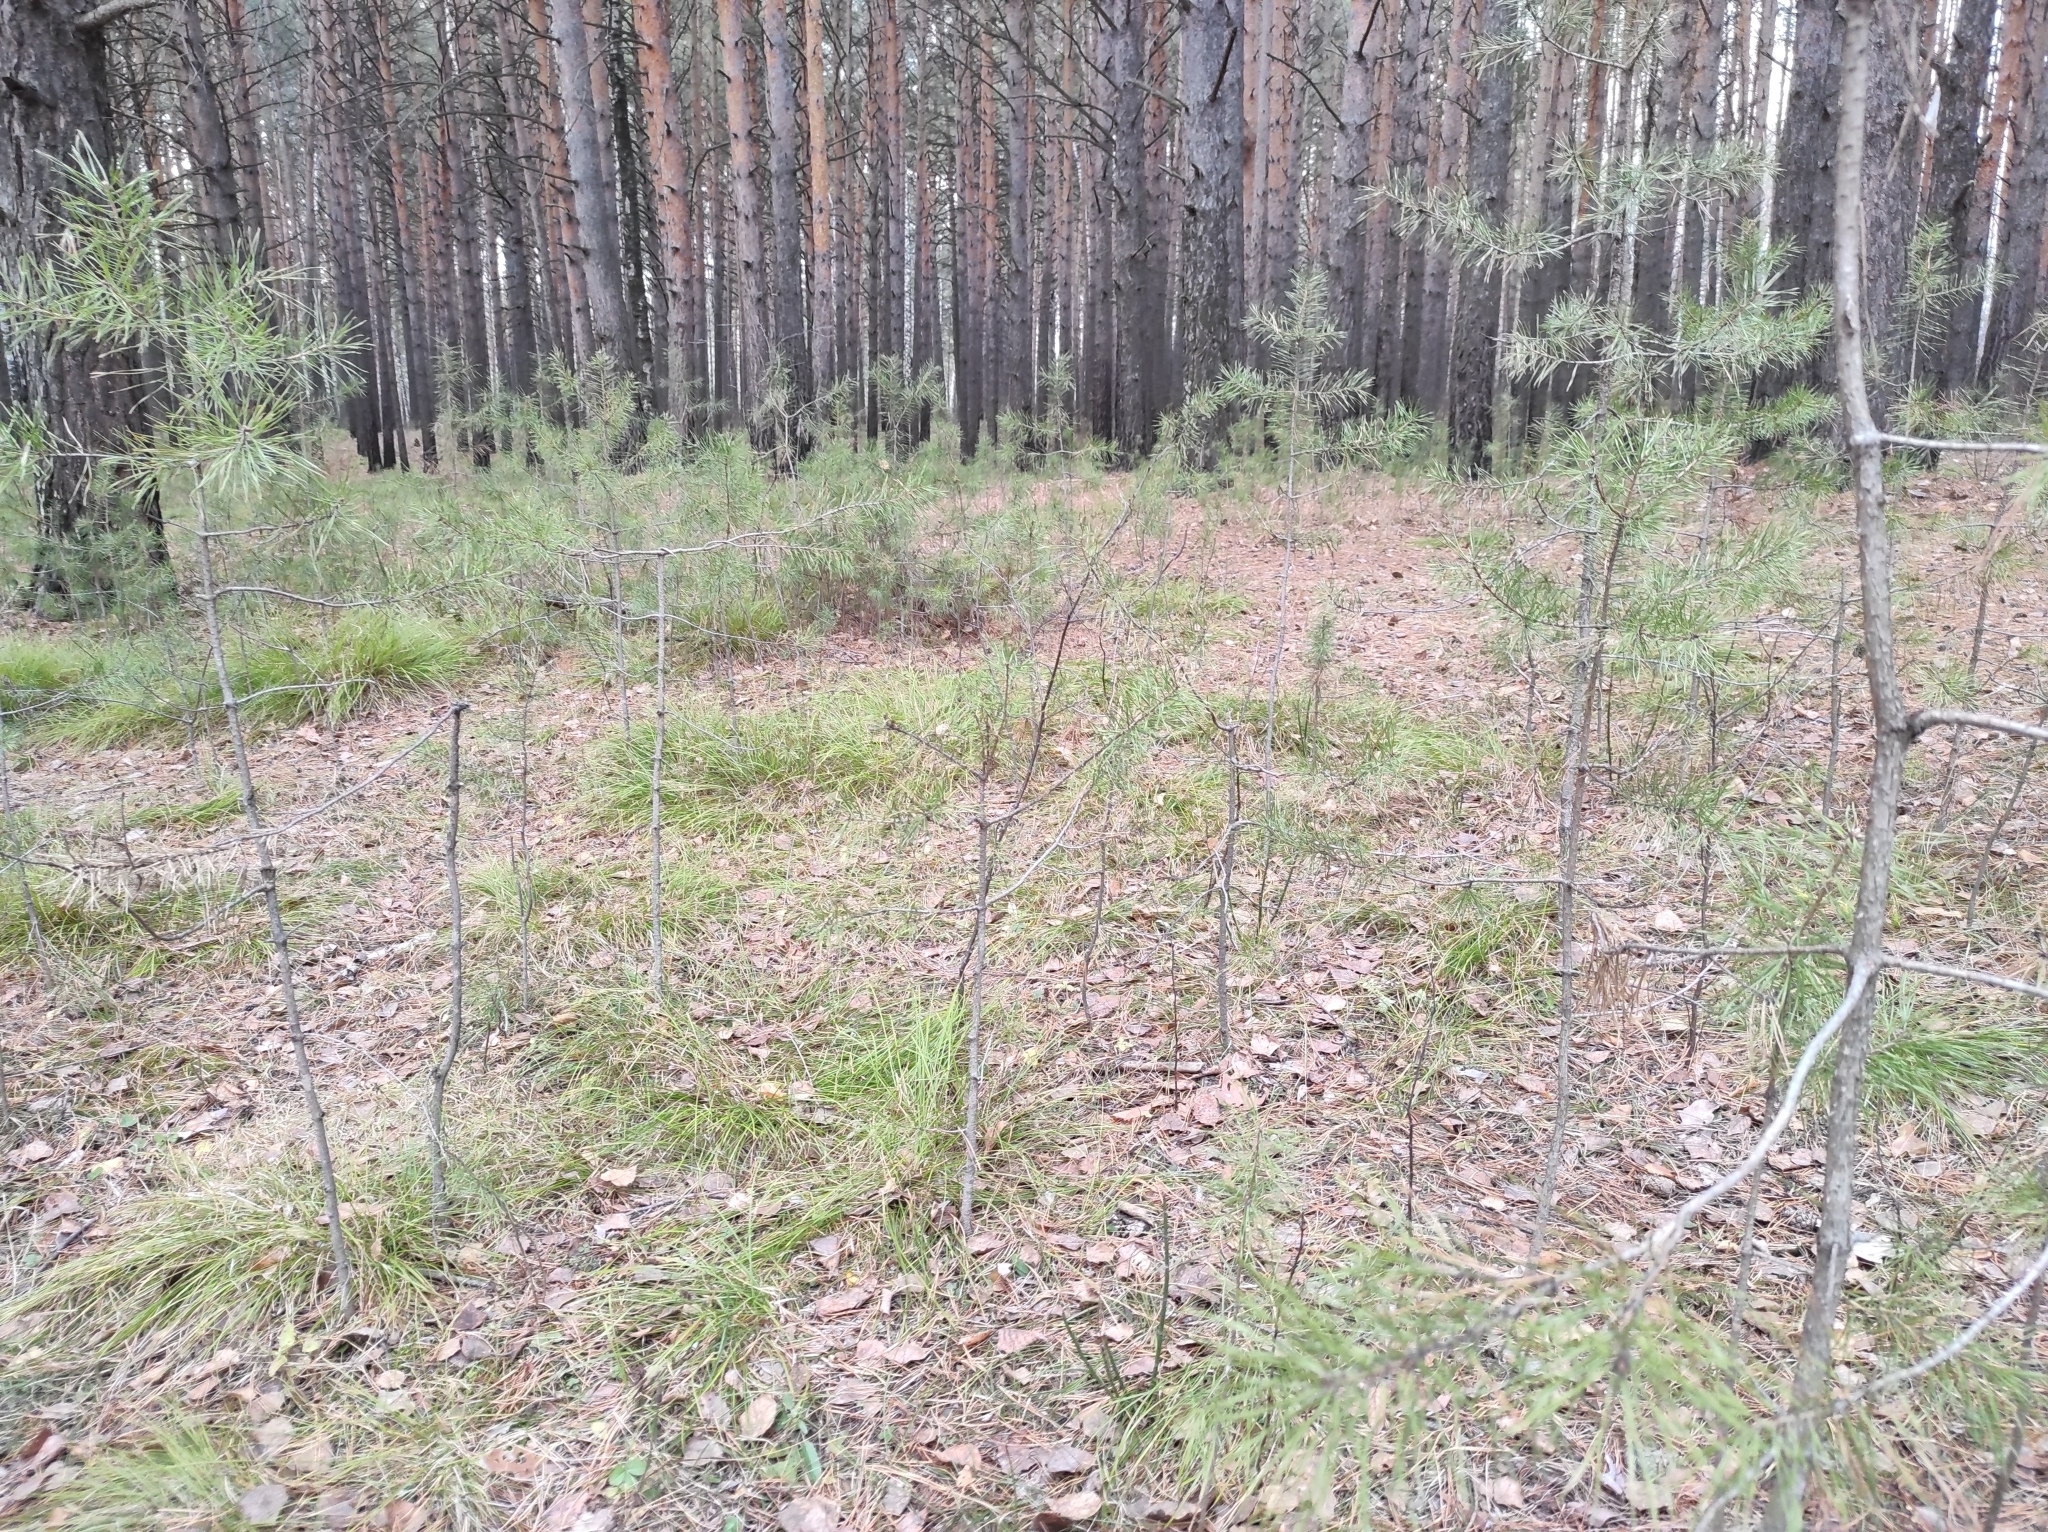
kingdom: Plantae
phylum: Tracheophyta
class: Pinopsida
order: Pinales
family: Pinaceae
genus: Pinus
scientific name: Pinus sylvestris
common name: Scots pine
